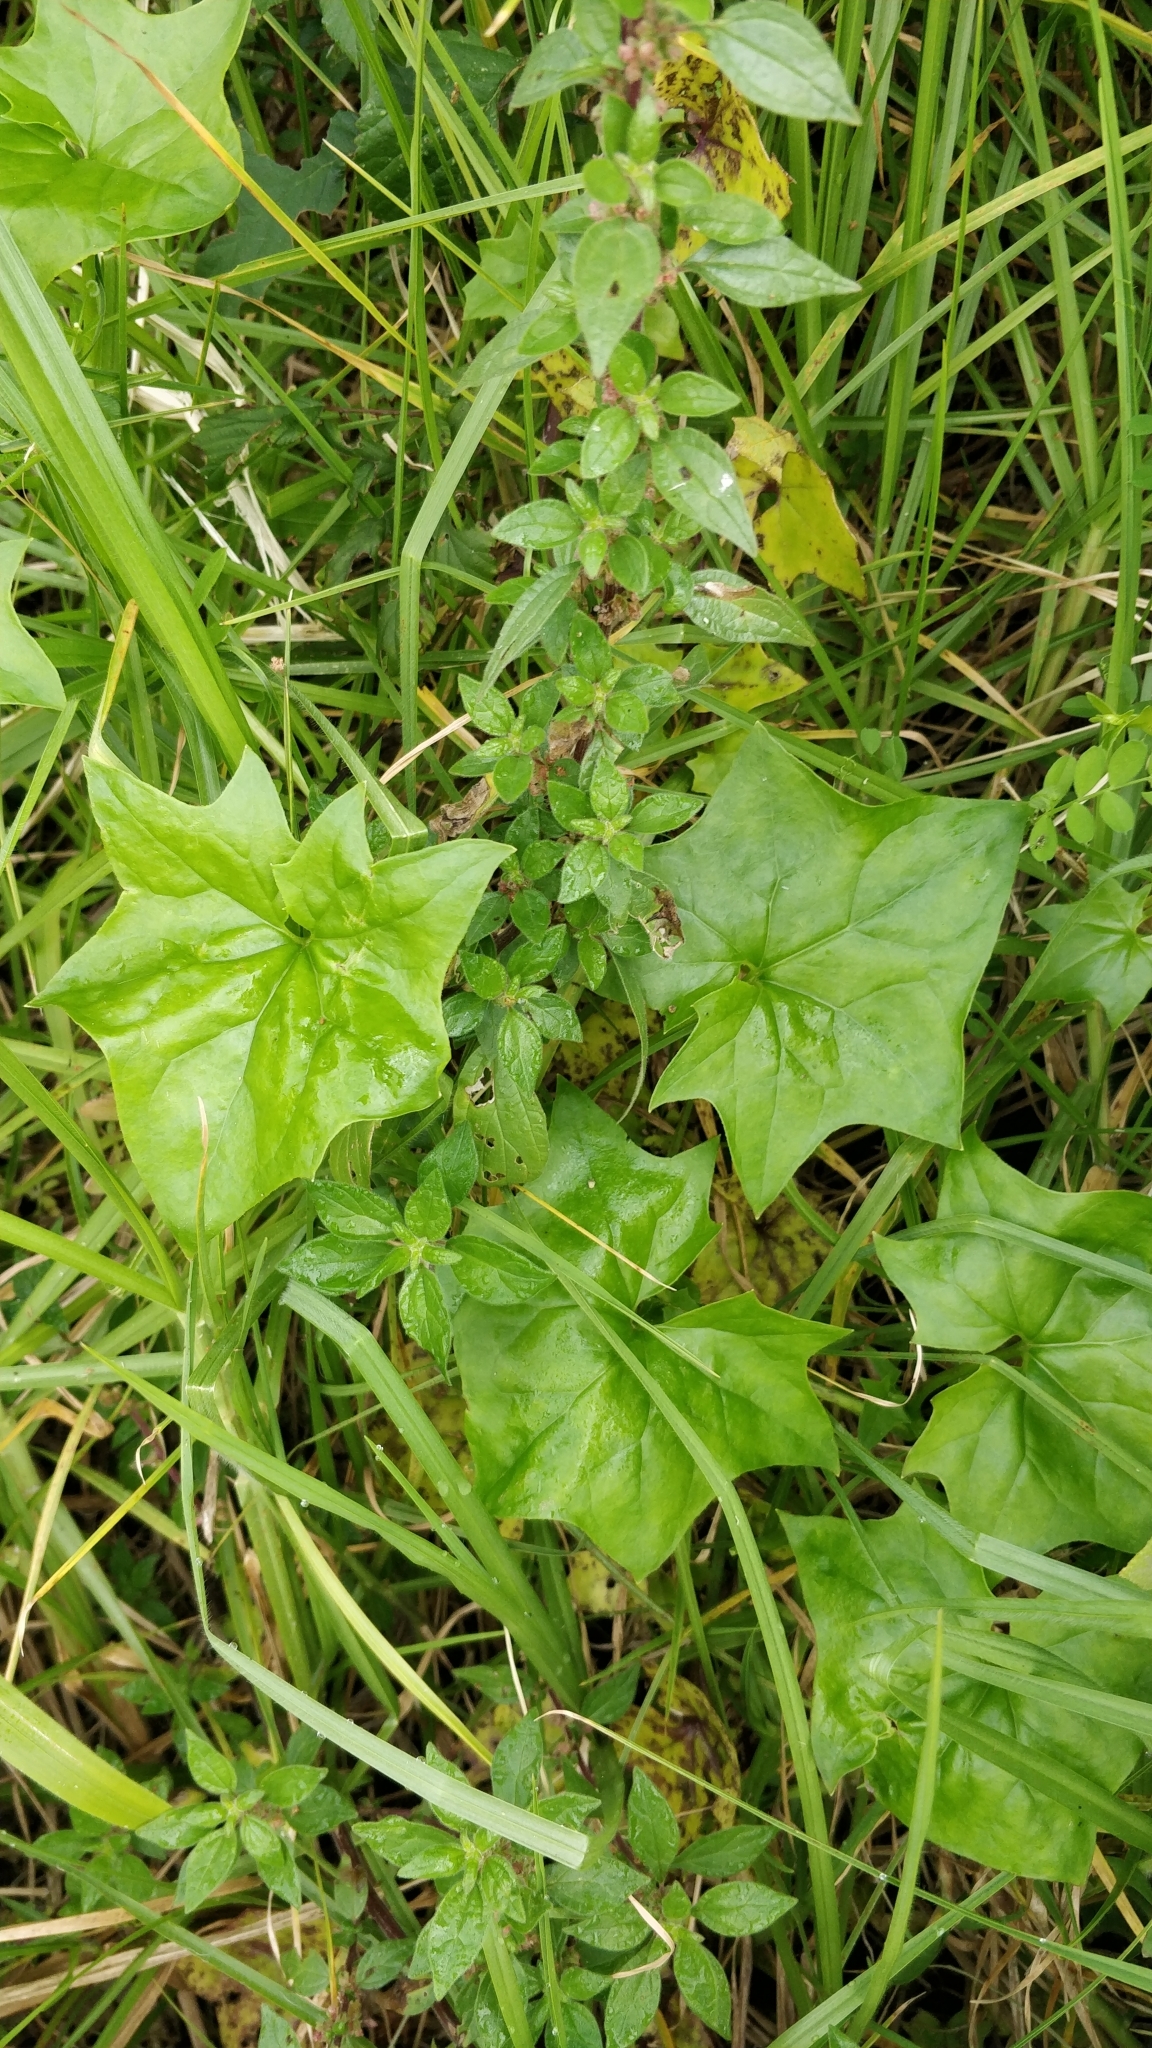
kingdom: Plantae
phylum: Tracheophyta
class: Magnoliopsida
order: Asterales
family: Asteraceae
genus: Delairea
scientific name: Delairea odorata
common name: Cape-ivy
